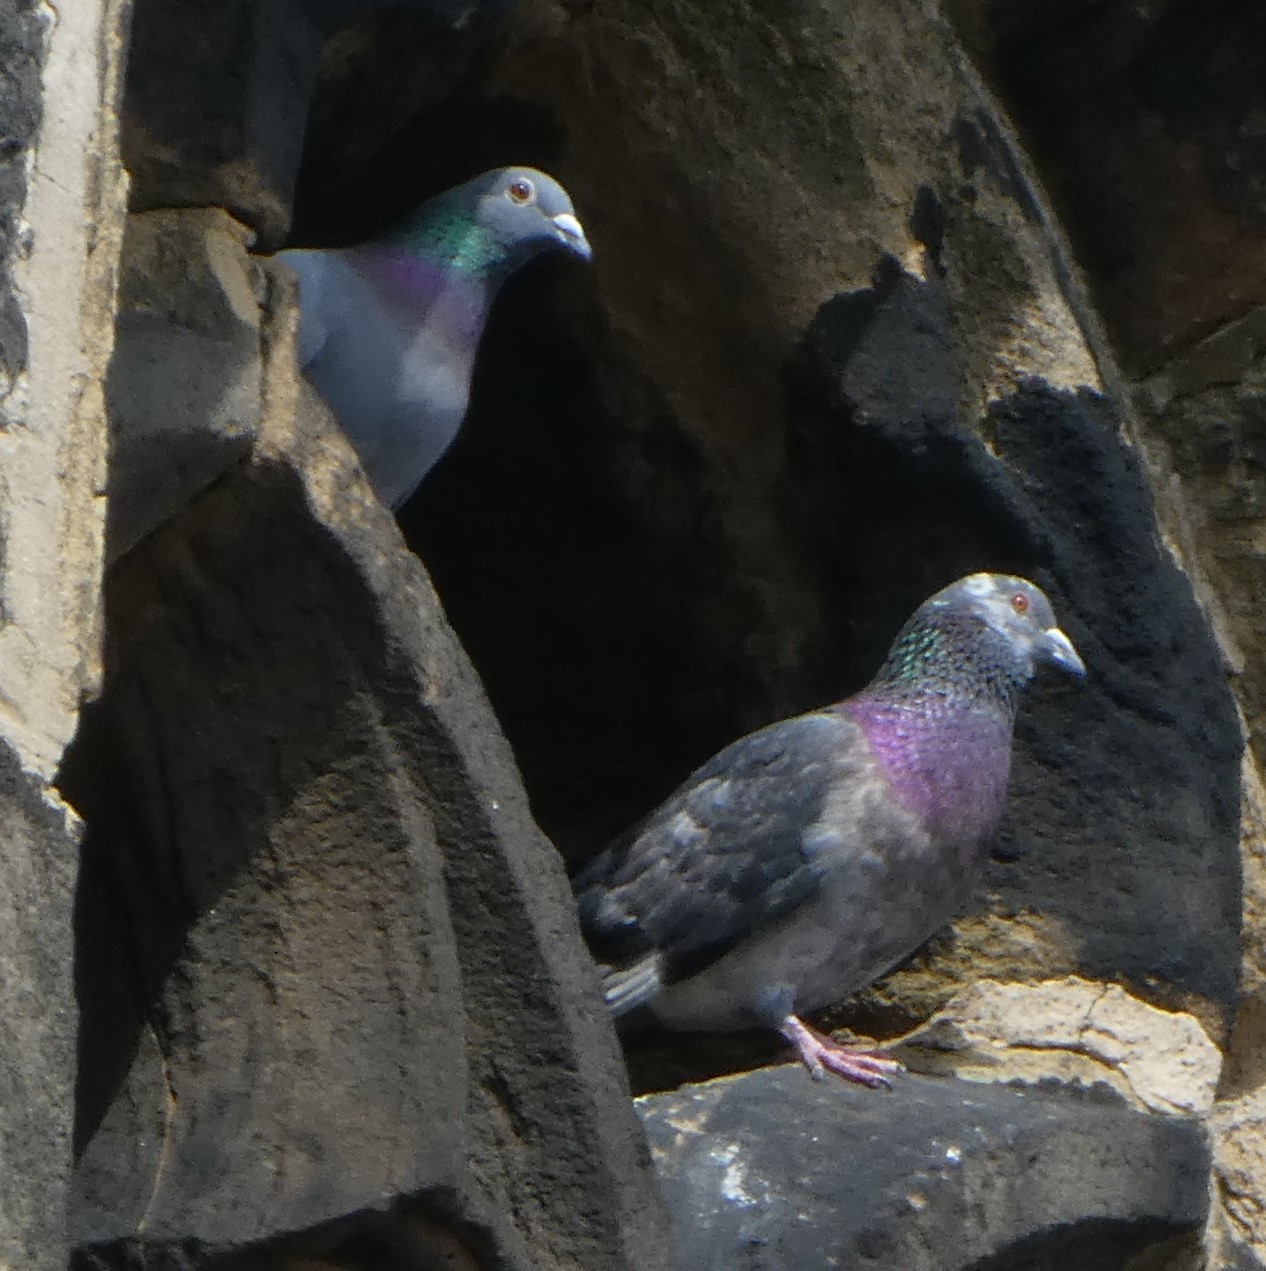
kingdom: Animalia
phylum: Chordata
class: Aves
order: Columbiformes
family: Columbidae
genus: Columba
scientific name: Columba livia
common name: Rock pigeon
